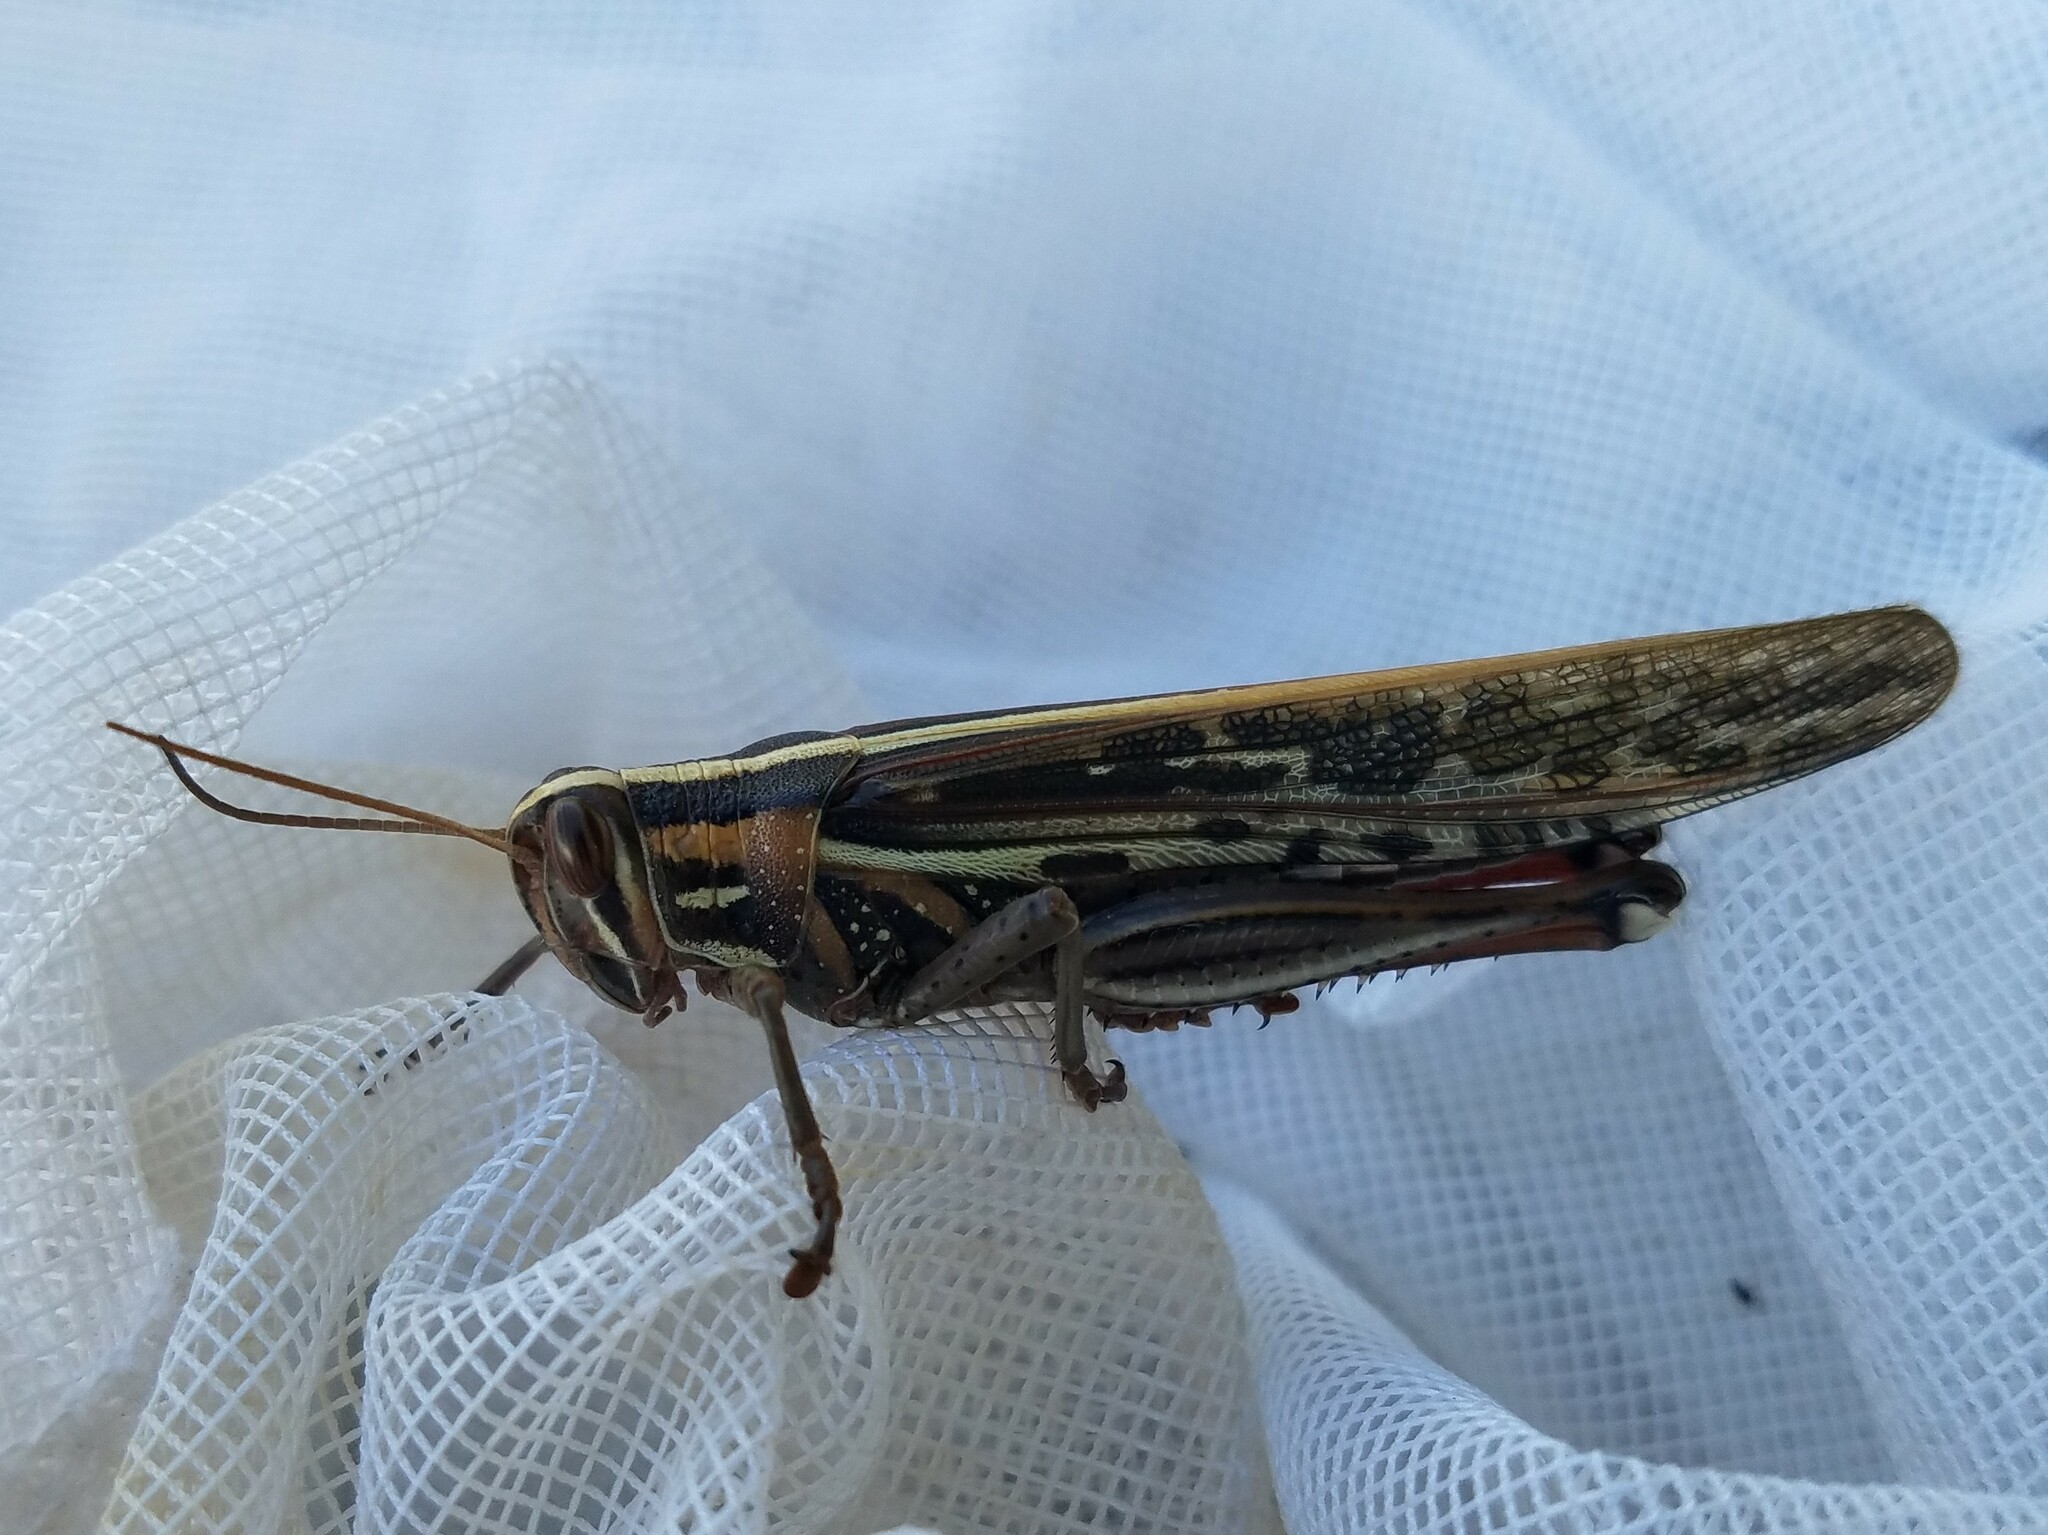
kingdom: Animalia
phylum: Arthropoda
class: Insecta
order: Orthoptera
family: Acrididae
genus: Schistocerca
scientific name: Schistocerca americana
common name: American bird locust
